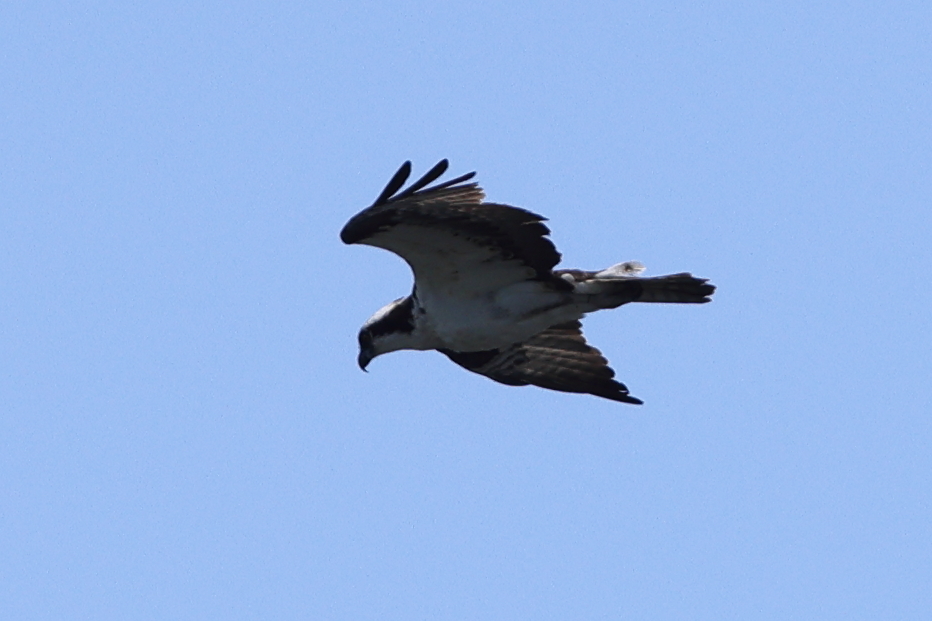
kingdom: Animalia
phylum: Chordata
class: Aves
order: Accipitriformes
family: Pandionidae
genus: Pandion
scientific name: Pandion haliaetus
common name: Osprey
